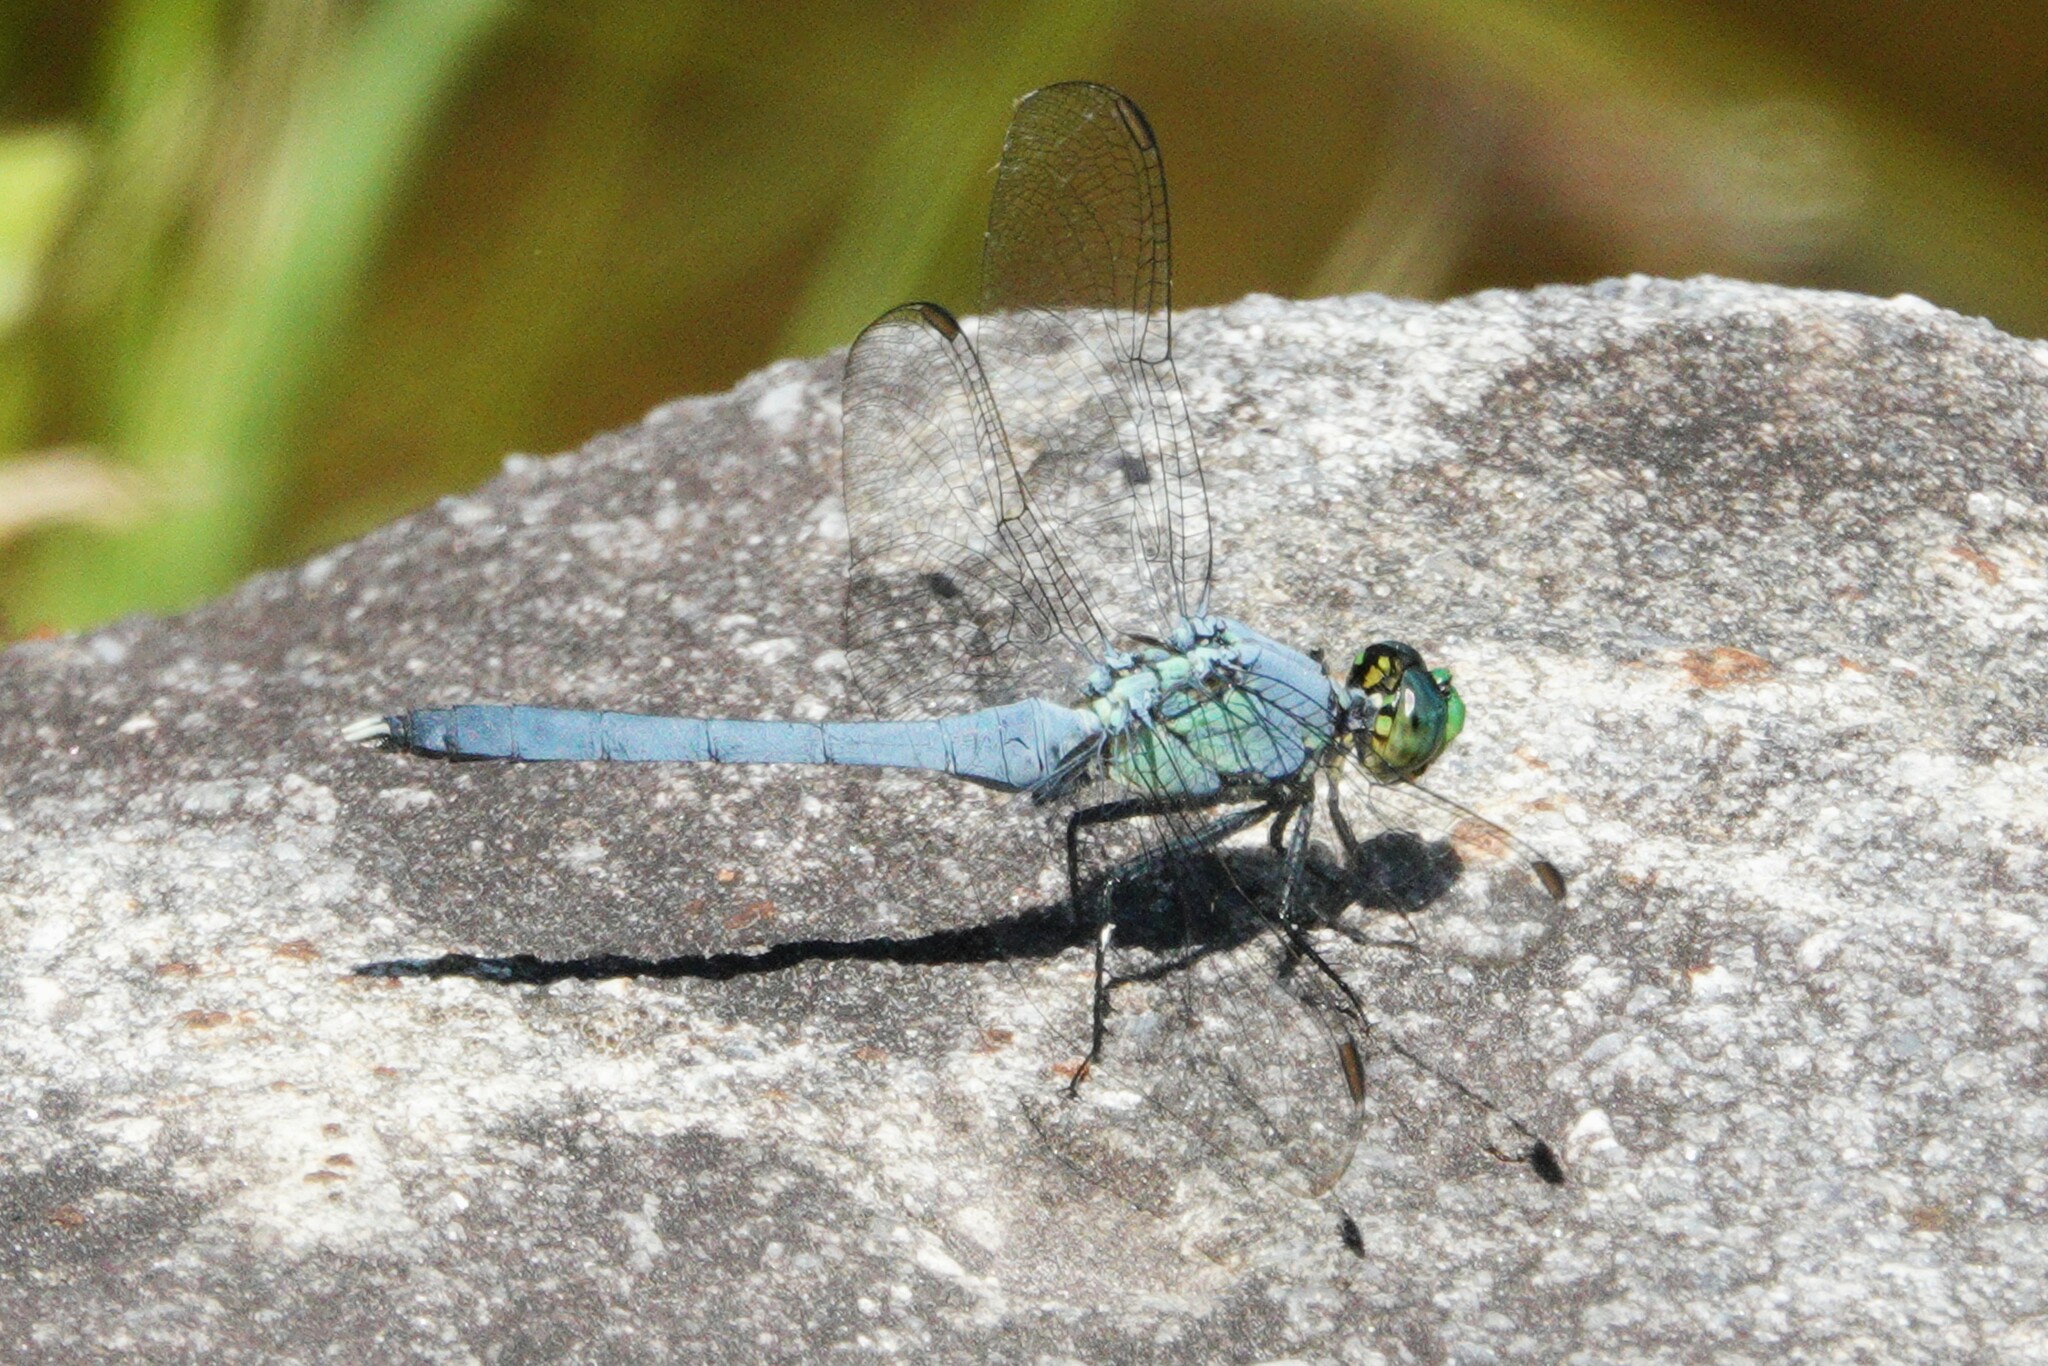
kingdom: Animalia
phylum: Arthropoda
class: Insecta
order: Odonata
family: Libellulidae
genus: Erythemis
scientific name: Erythemis simplicicollis
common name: Eastern pondhawk
